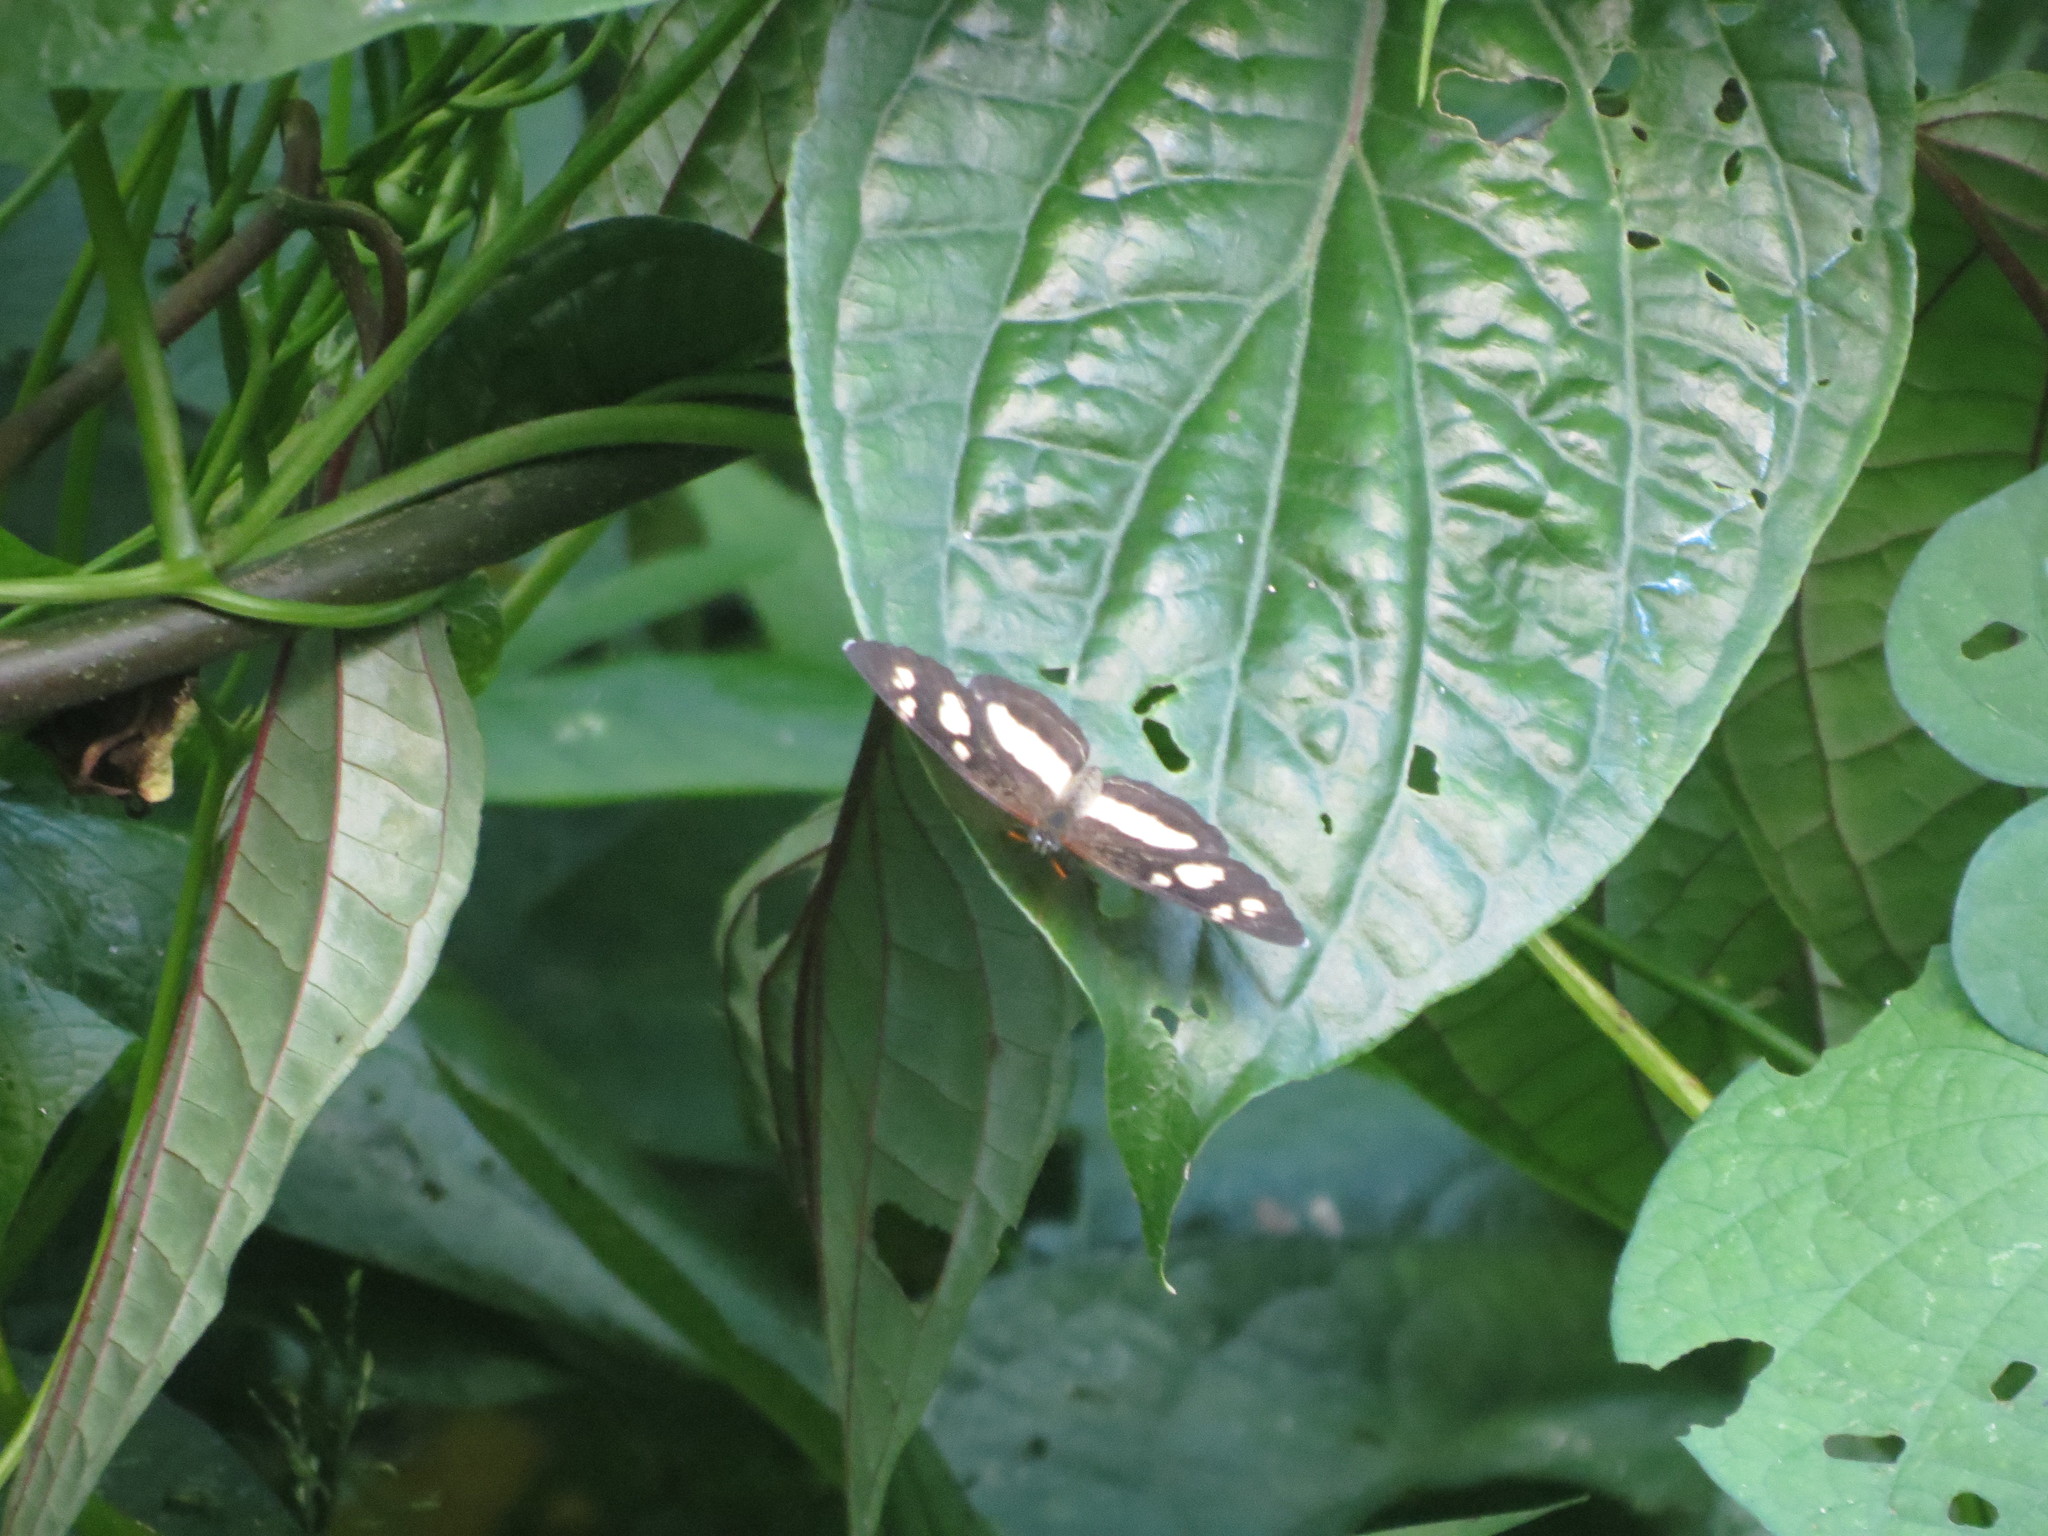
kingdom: Animalia
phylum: Arthropoda
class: Insecta
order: Lepidoptera
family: Nymphalidae
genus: Eresia
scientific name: Eresia clio
